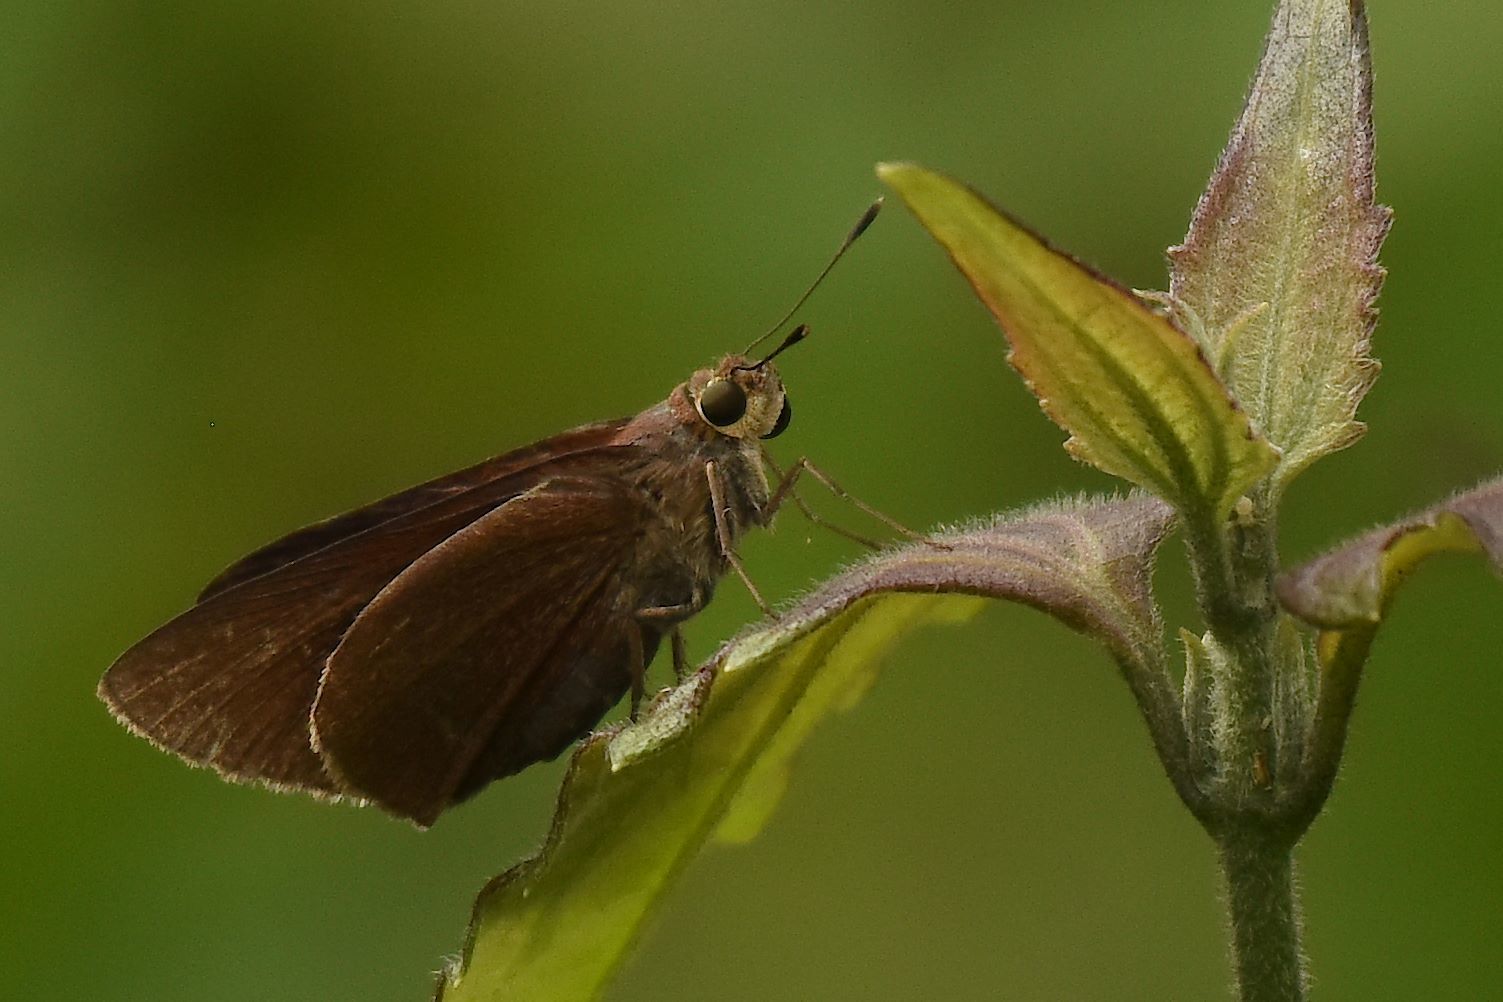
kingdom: Animalia
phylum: Arthropoda
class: Insecta
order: Lepidoptera
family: Hesperiidae
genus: Asbolis
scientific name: Asbolis capucinus
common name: Monk skipper
